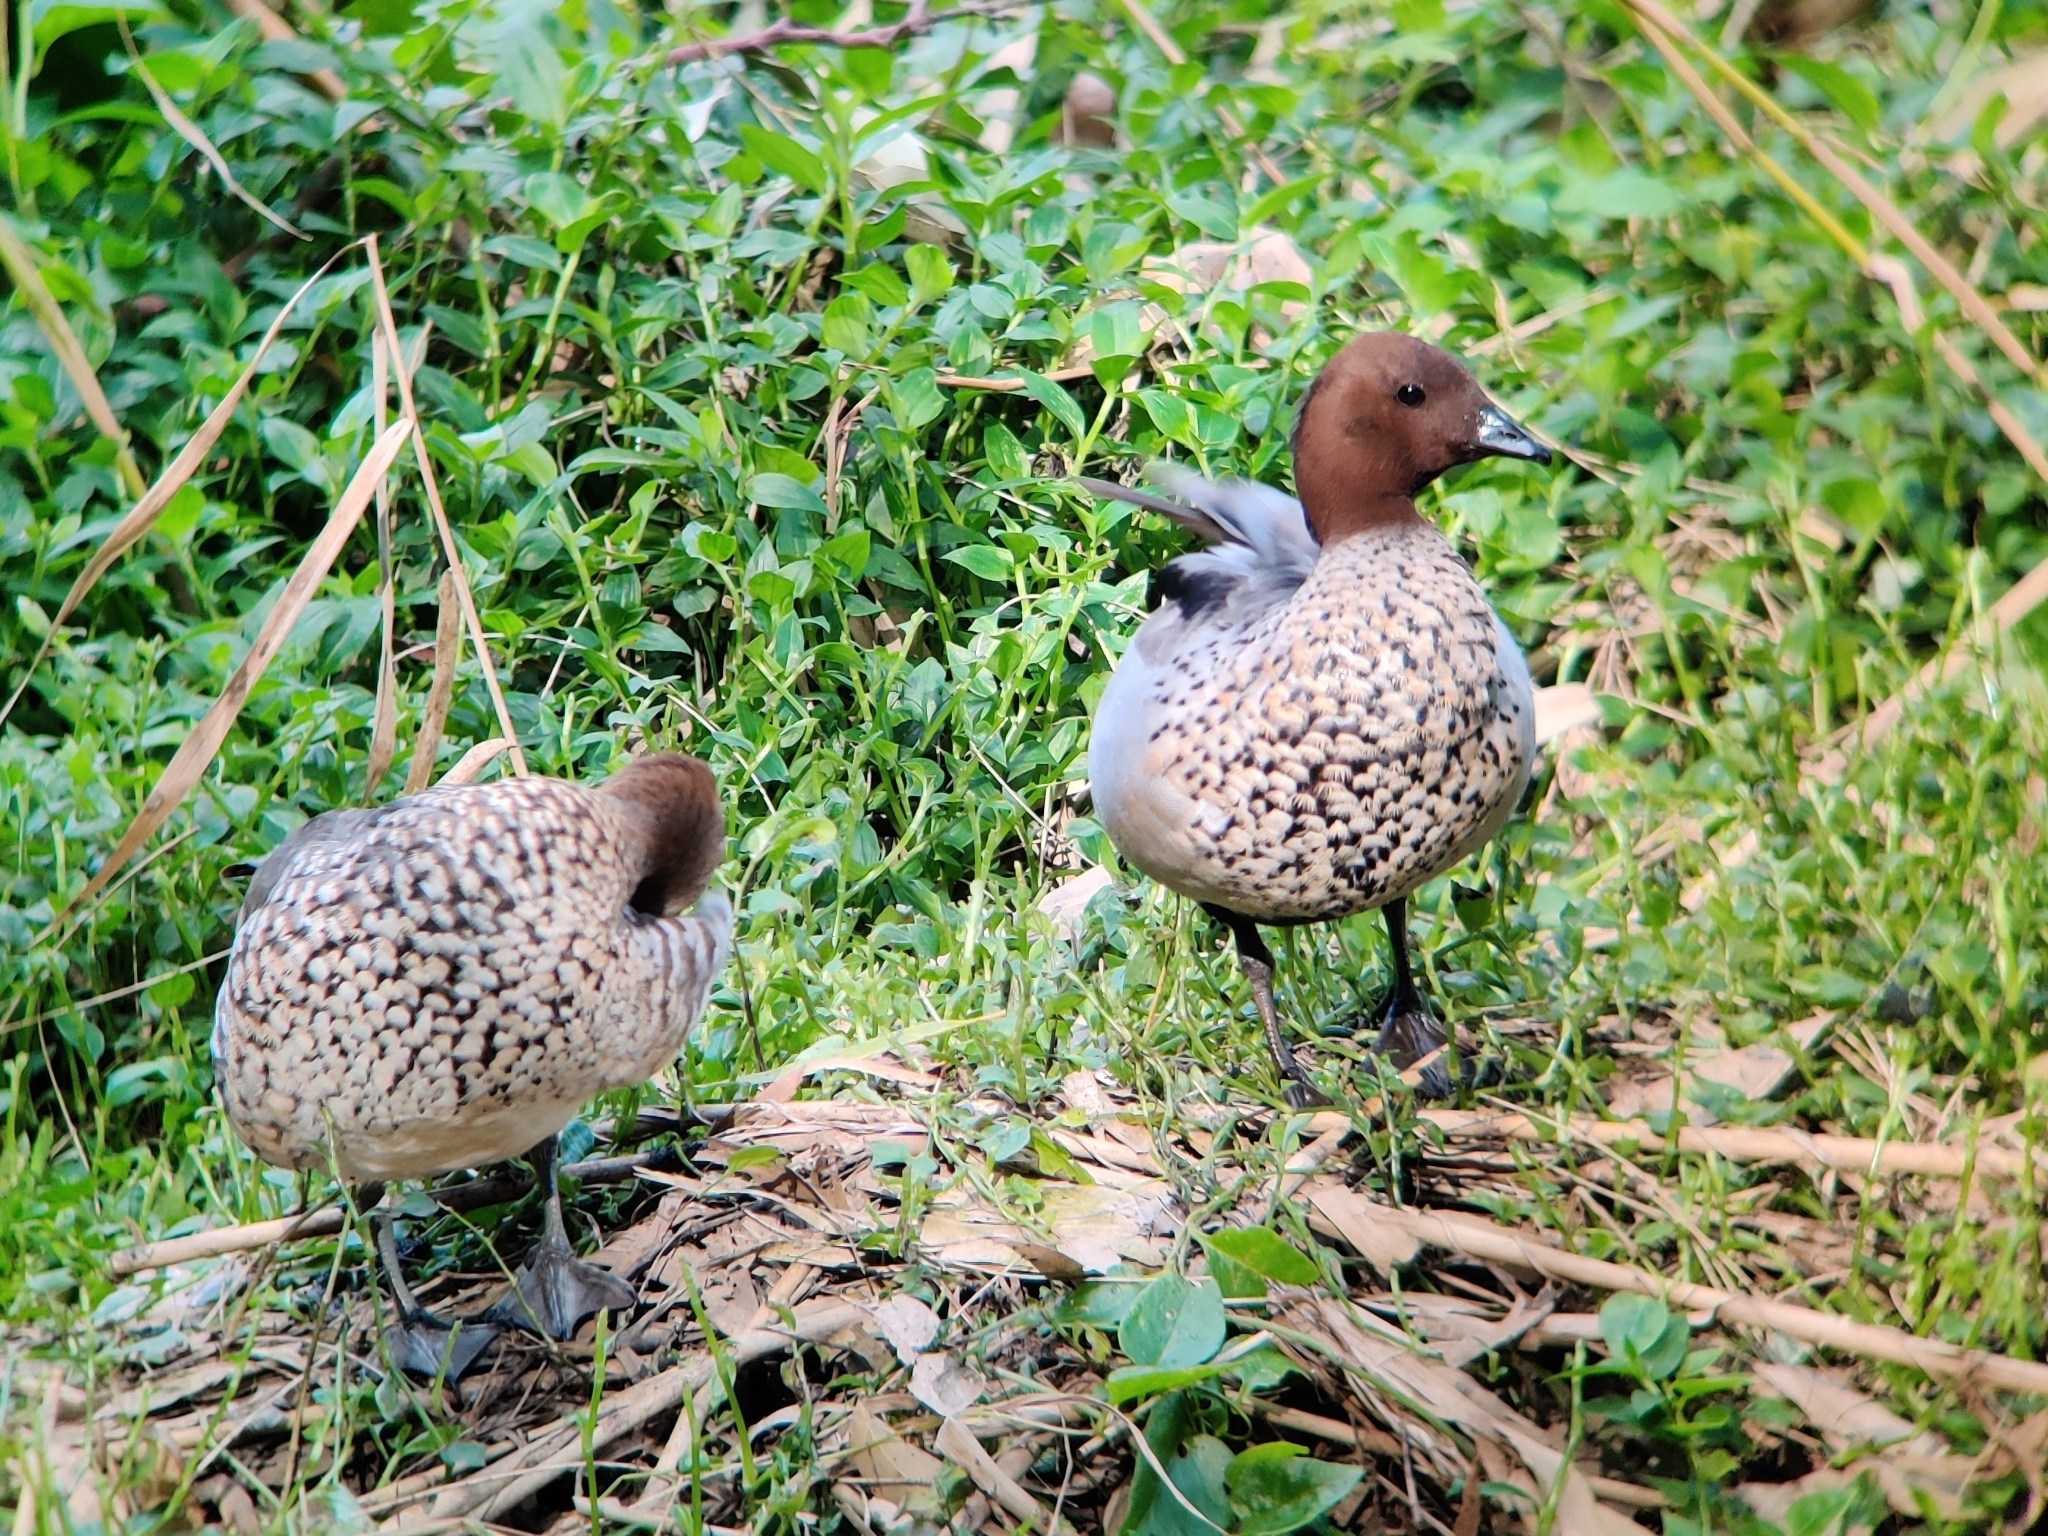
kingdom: Animalia
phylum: Chordata
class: Aves
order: Anseriformes
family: Anatidae
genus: Chenonetta
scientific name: Chenonetta jubata
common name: Maned duck
